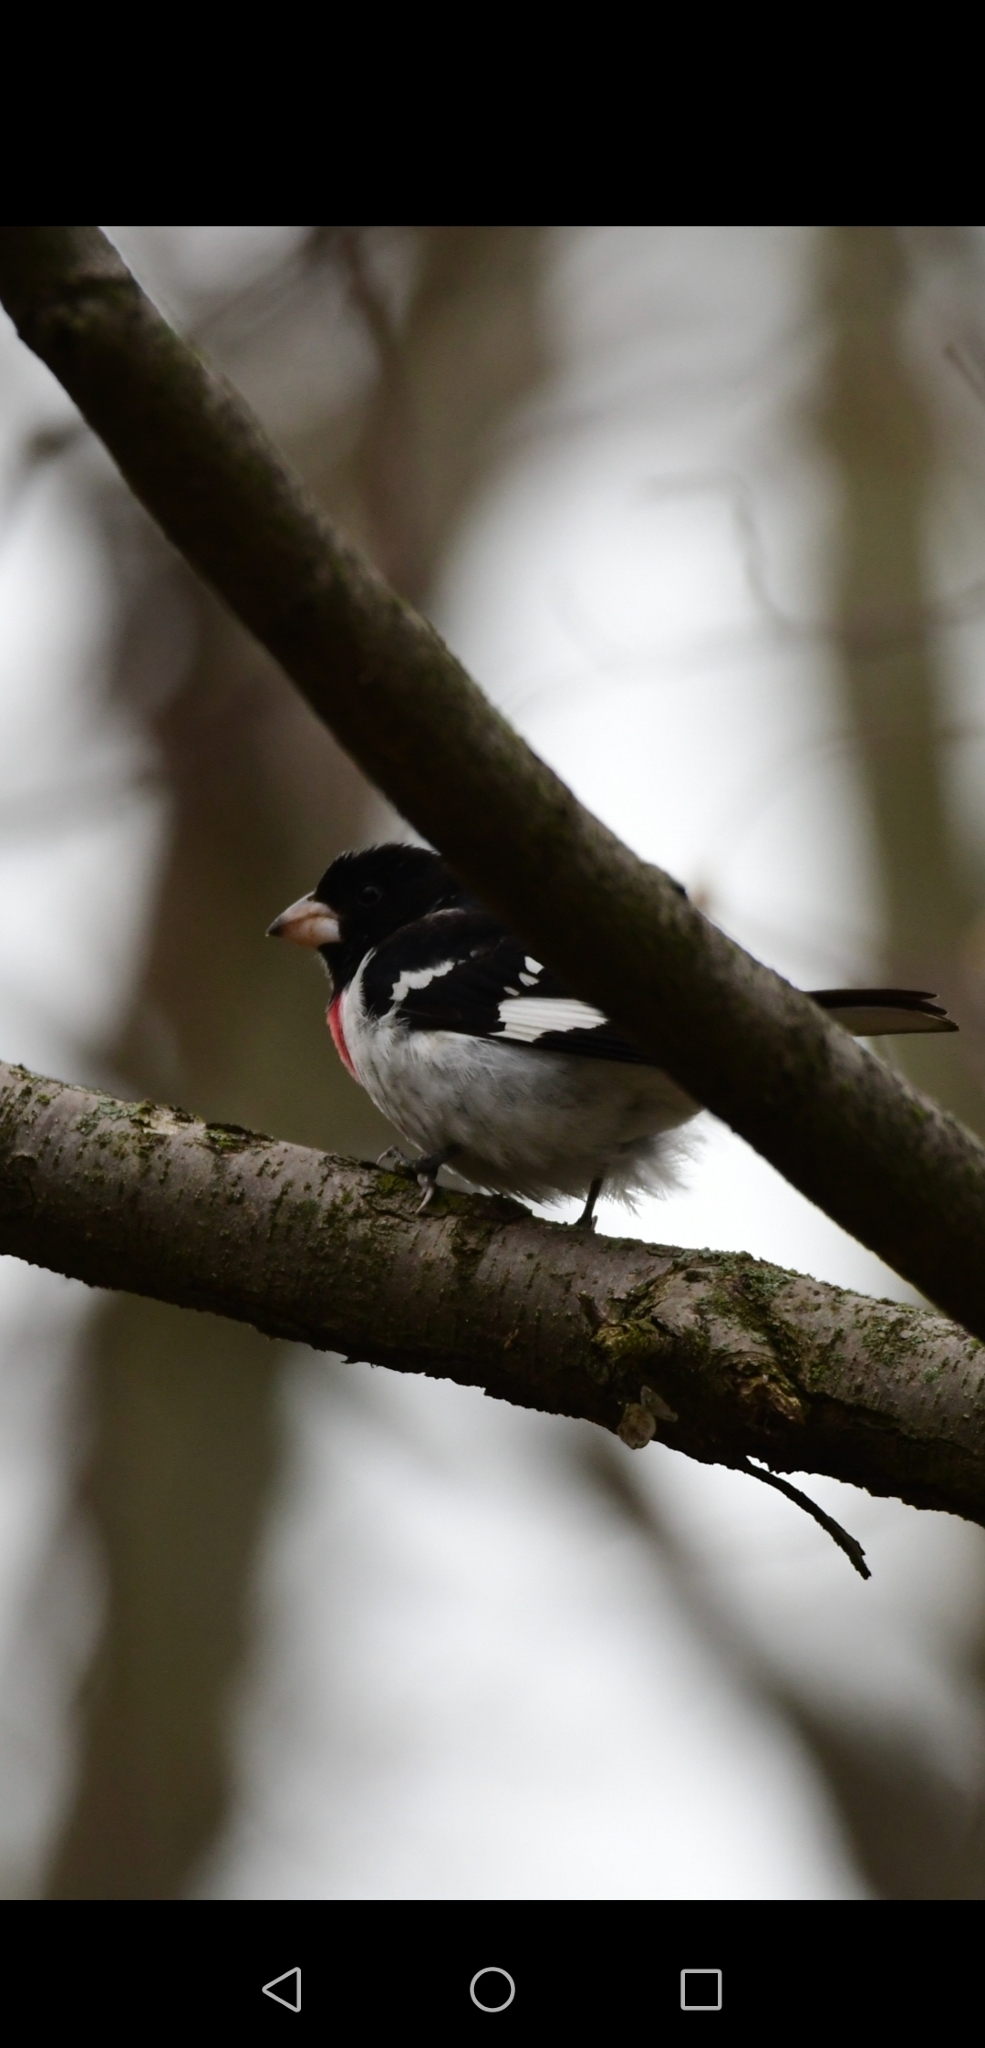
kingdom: Animalia
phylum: Chordata
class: Aves
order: Passeriformes
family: Cardinalidae
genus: Pheucticus
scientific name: Pheucticus ludovicianus
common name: Rose-breasted grosbeak
